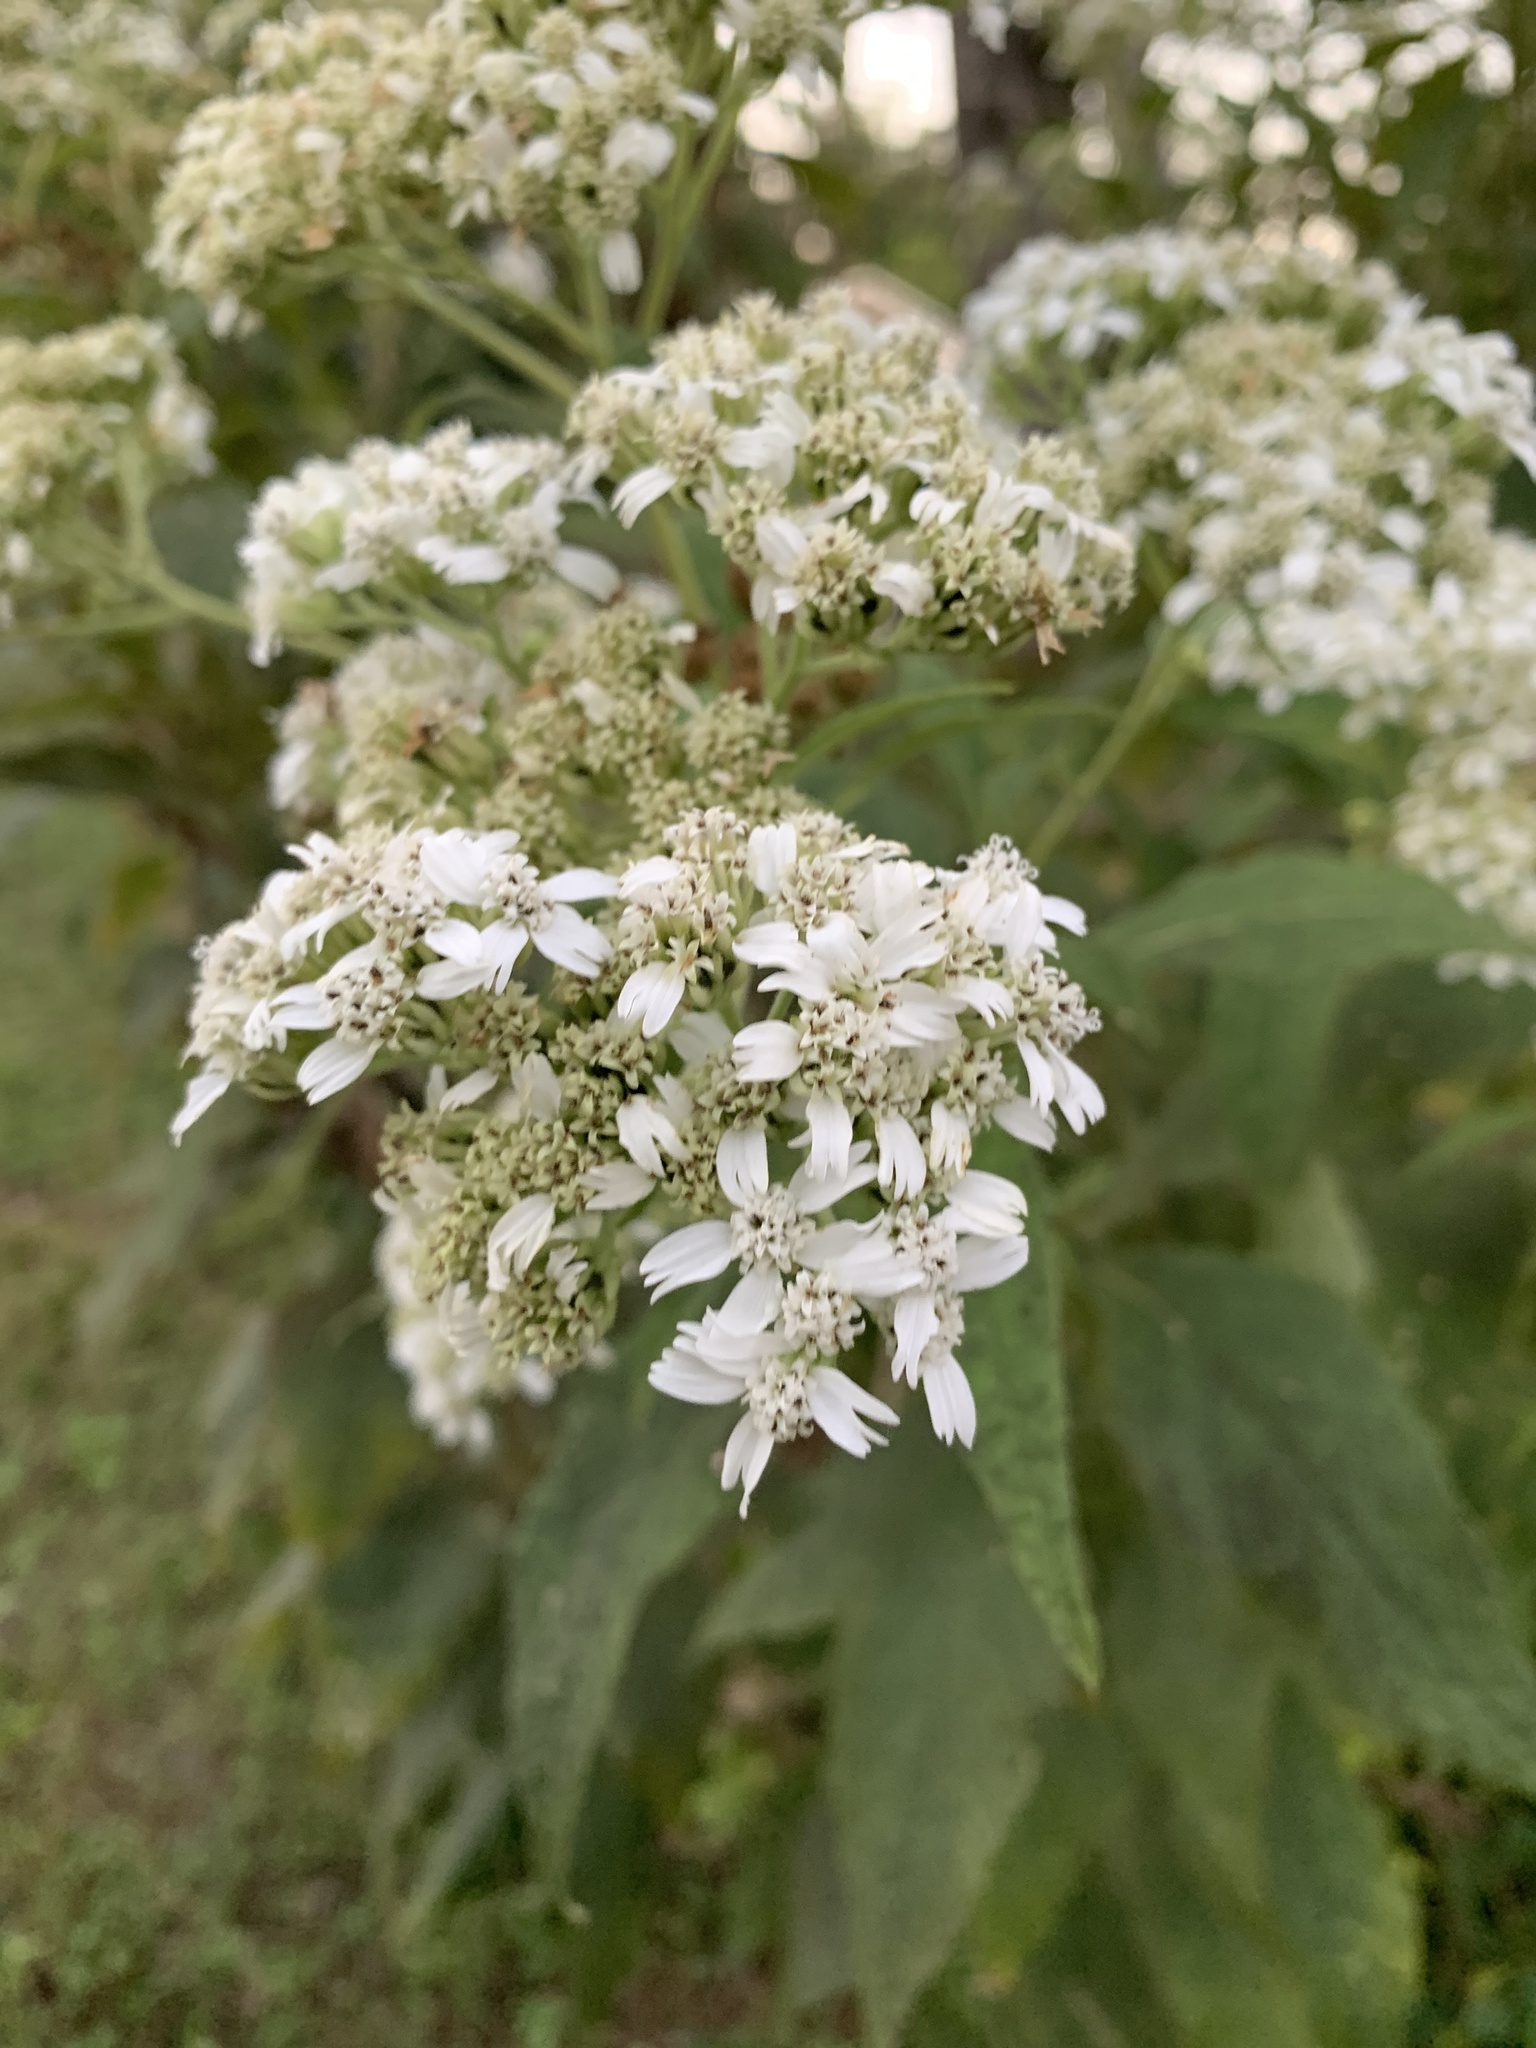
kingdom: Plantae
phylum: Tracheophyta
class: Magnoliopsida
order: Asterales
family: Asteraceae
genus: Verbesina
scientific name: Verbesina virginica
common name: Frostweed
